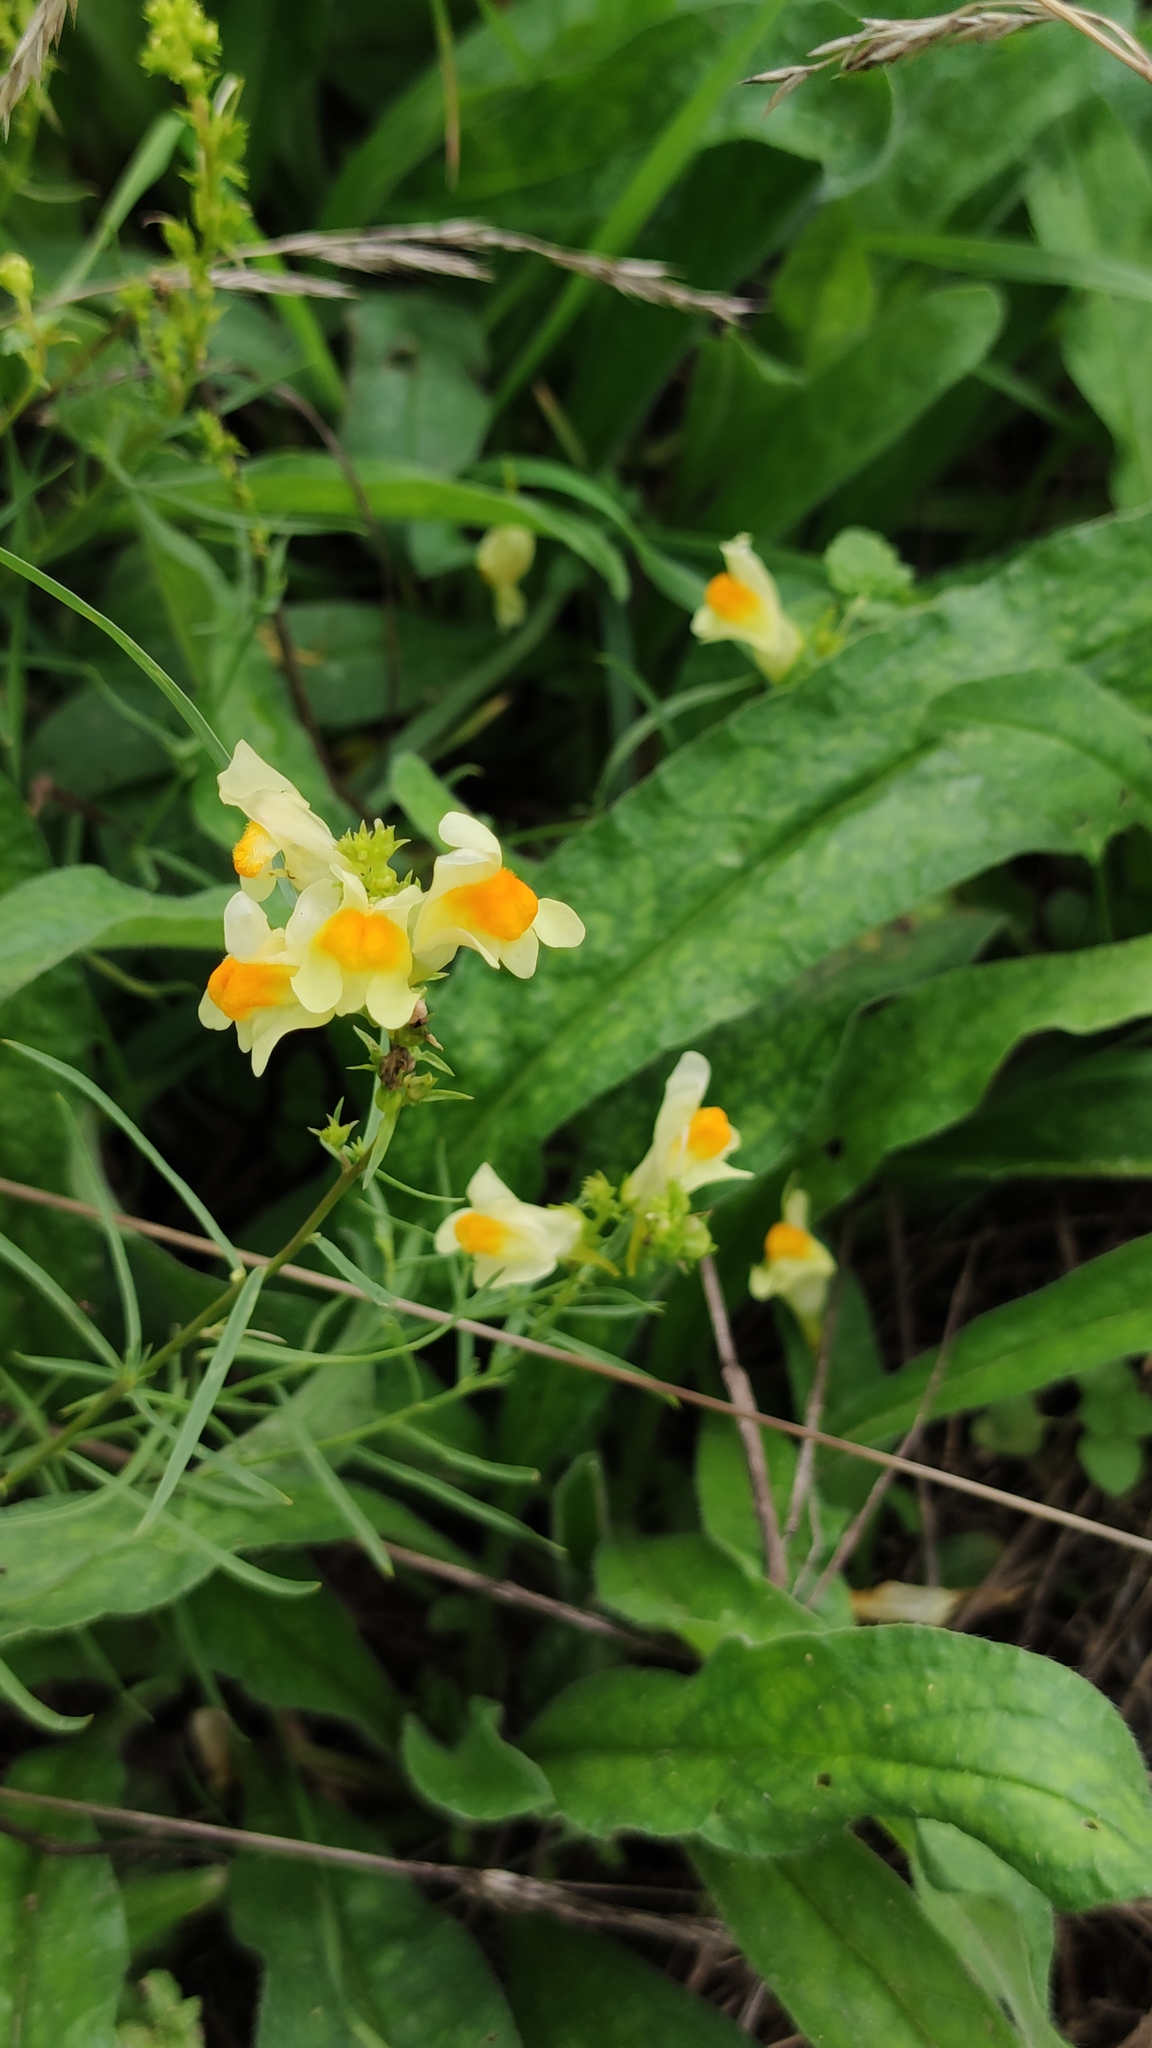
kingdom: Plantae
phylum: Tracheophyta
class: Magnoliopsida
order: Lamiales
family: Plantaginaceae
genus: Linaria
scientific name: Linaria vulgaris
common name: Butter and eggs
